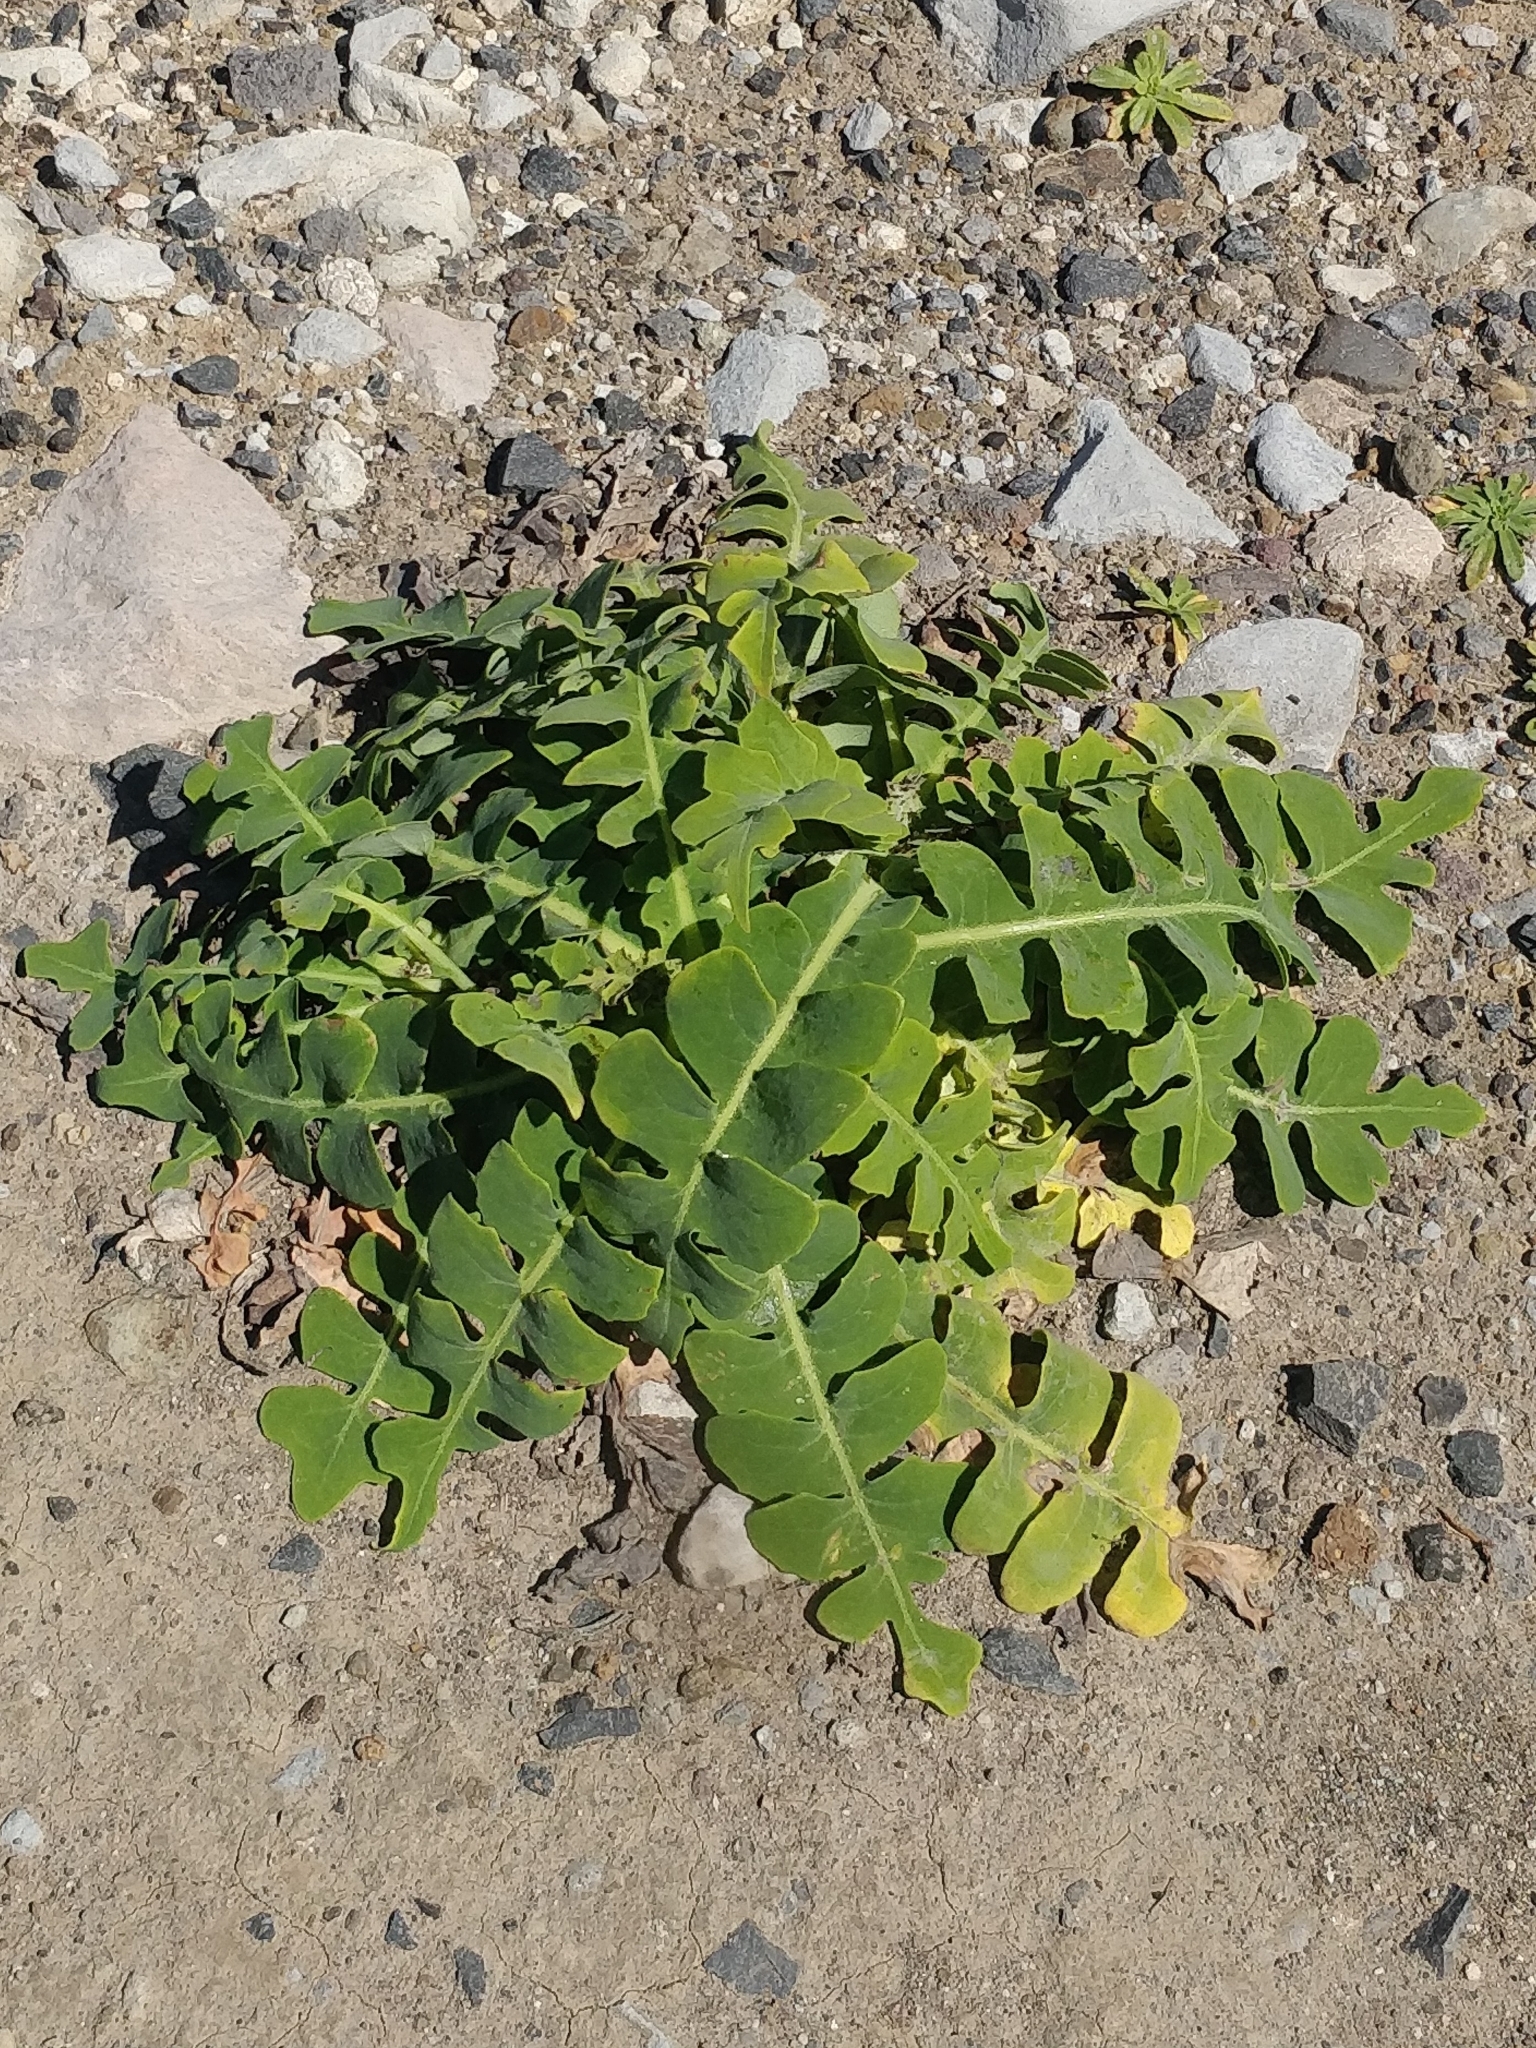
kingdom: Plantae
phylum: Tracheophyta
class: Magnoliopsida
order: Asterales
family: Asteraceae
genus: Sonchus
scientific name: Sonchus latifolius
